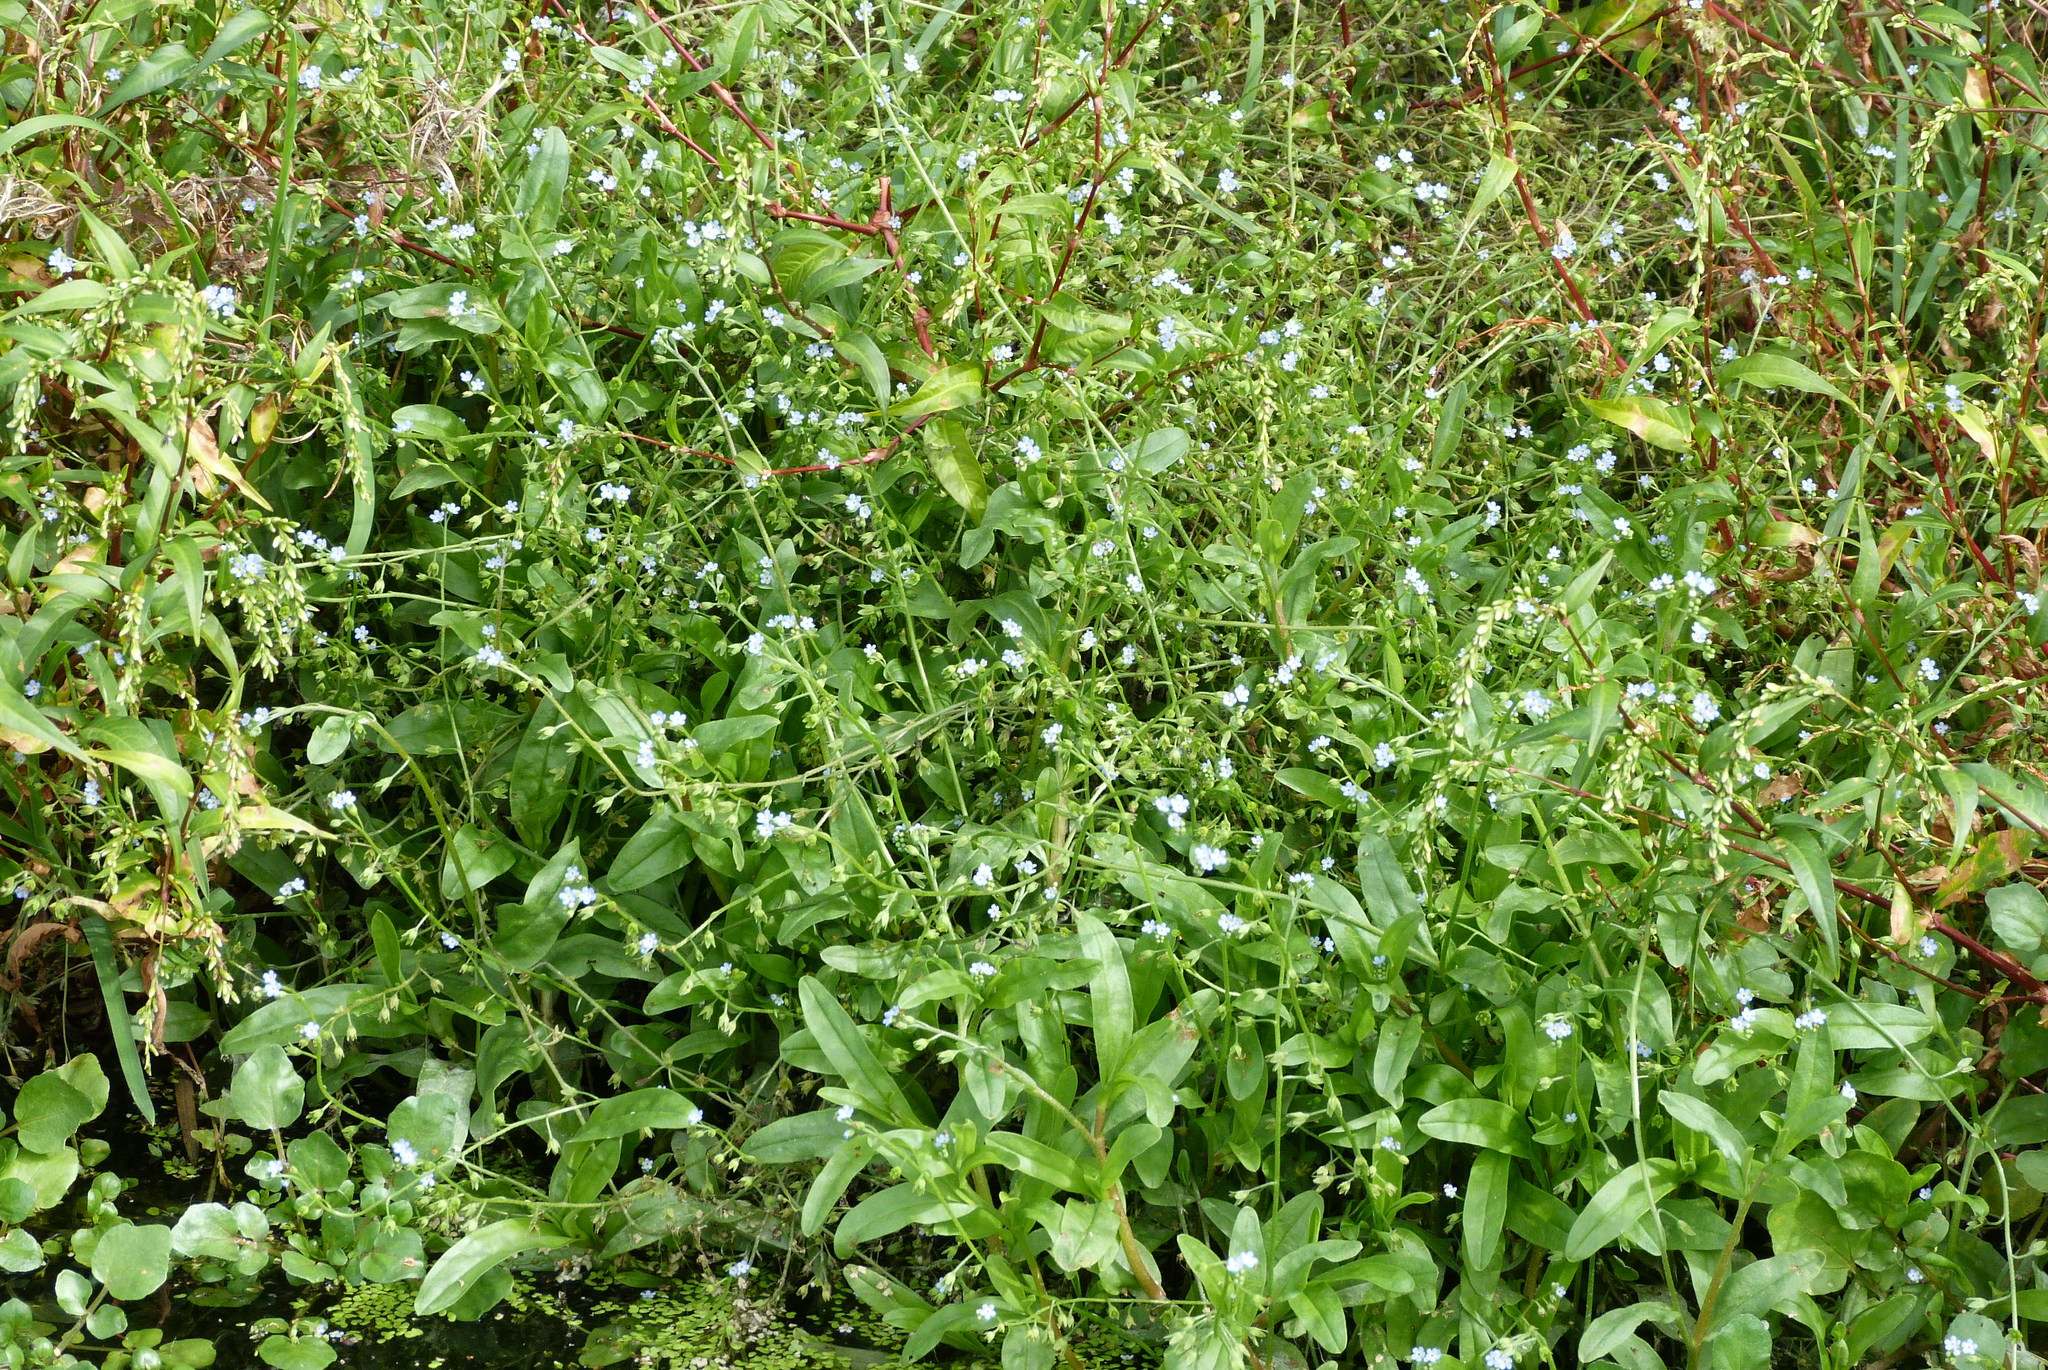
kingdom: Plantae
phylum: Tracheophyta
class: Magnoliopsida
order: Boraginales
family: Boraginaceae
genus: Myosotis
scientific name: Myosotis laxa
